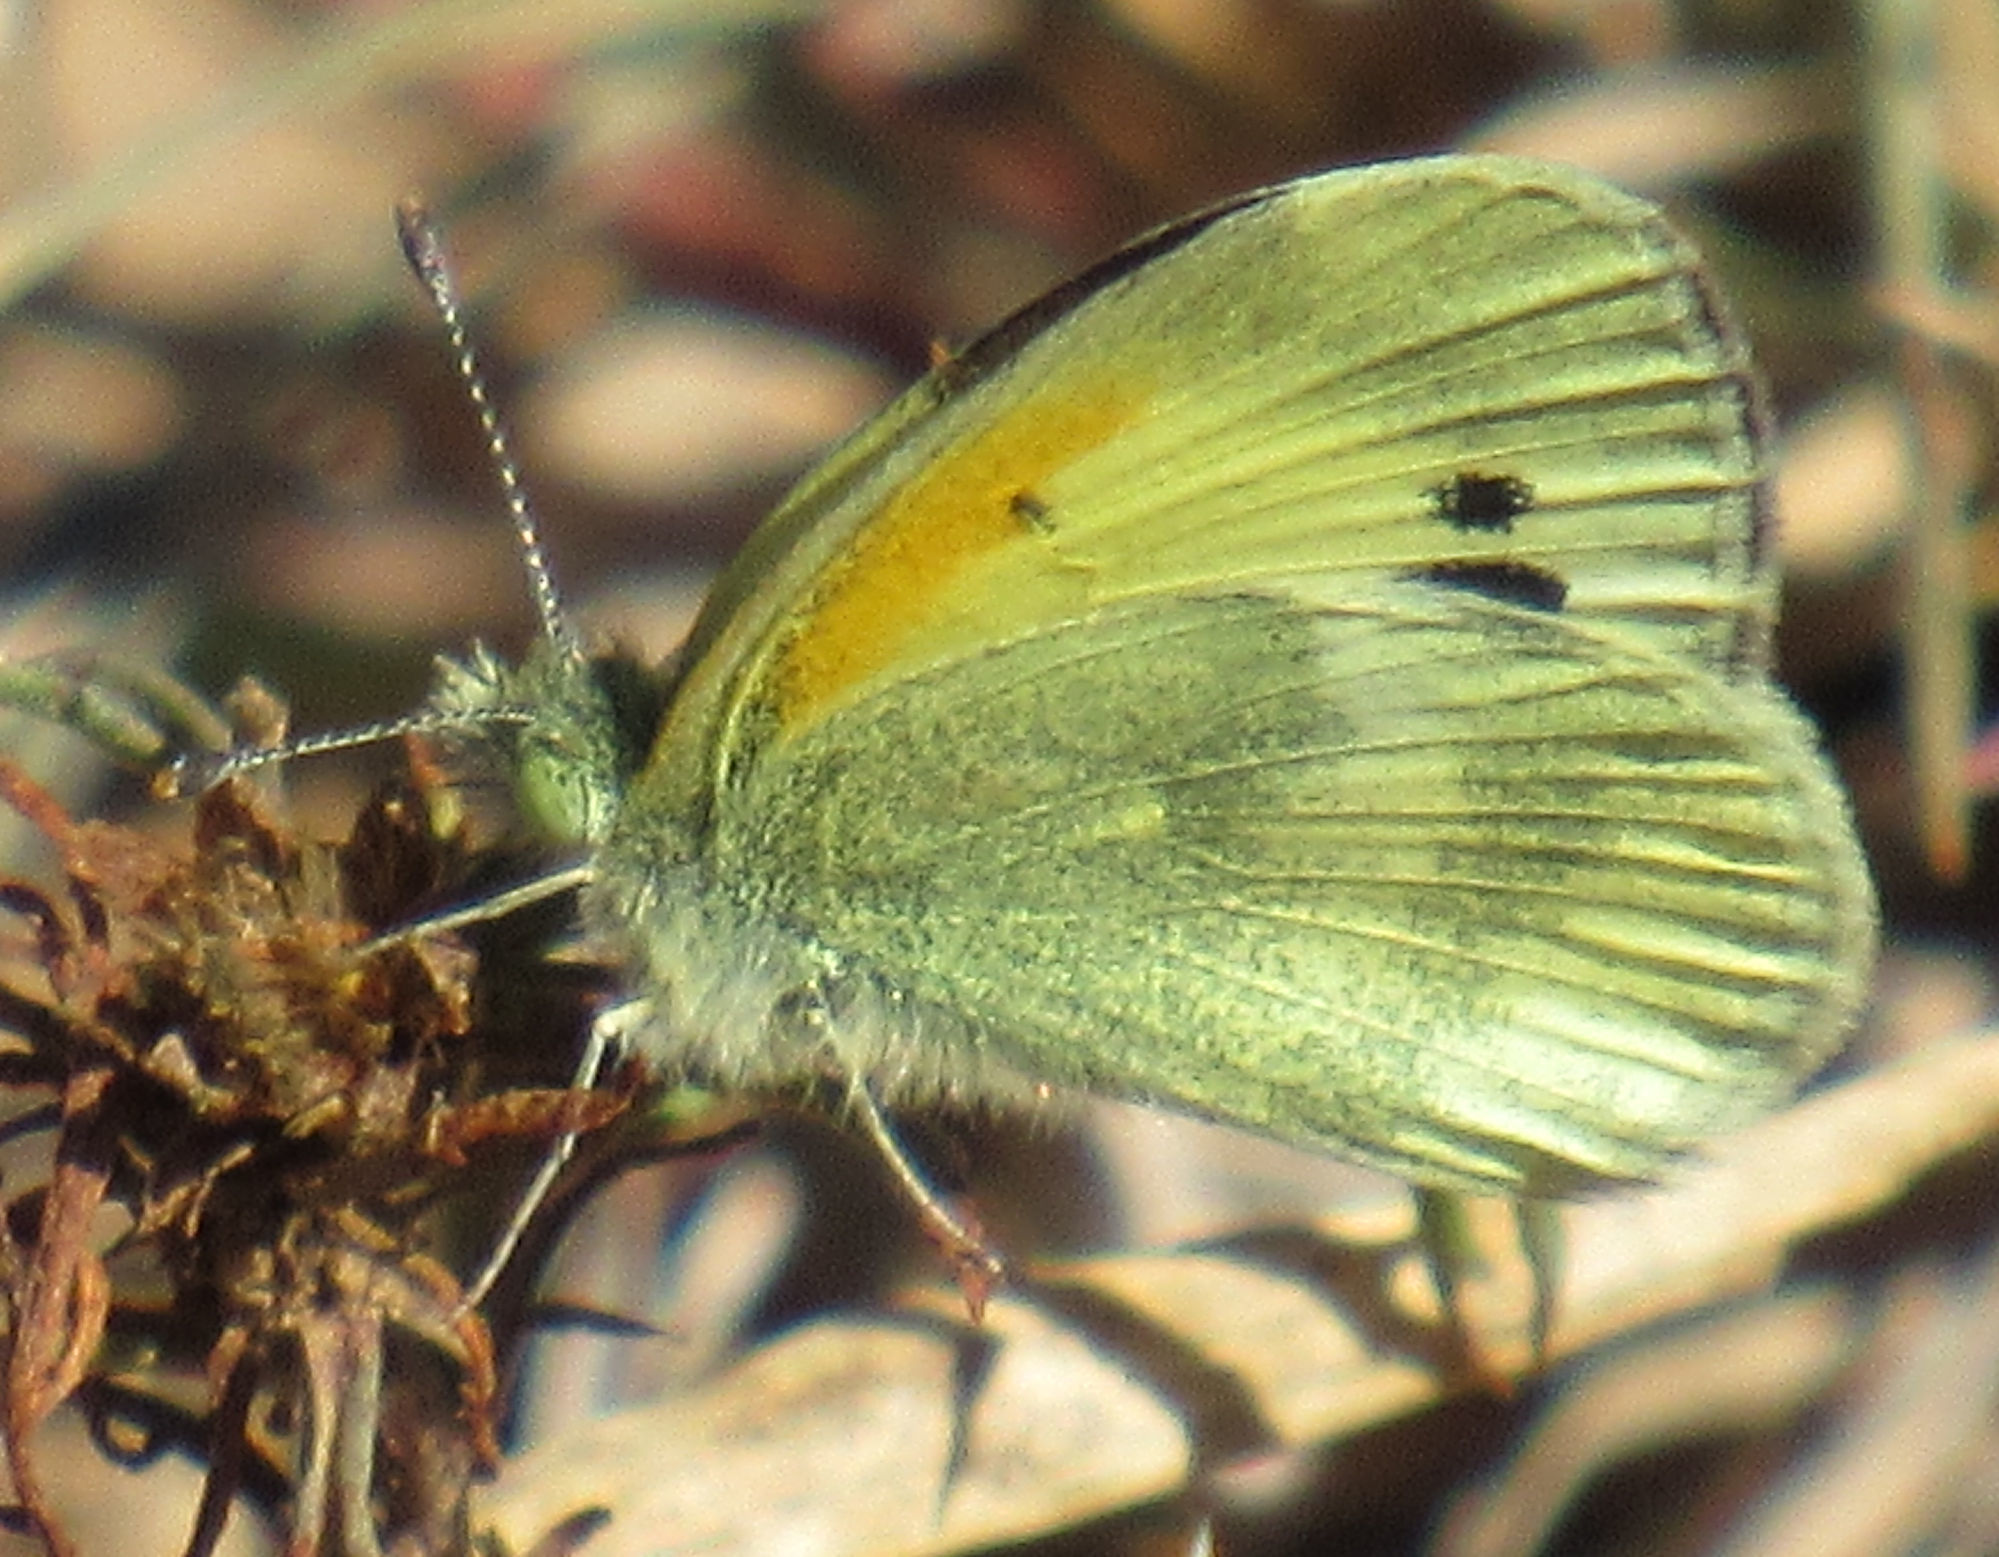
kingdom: Animalia
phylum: Arthropoda
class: Insecta
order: Lepidoptera
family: Pieridae
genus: Nathalis
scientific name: Nathalis iole
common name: Dainty sulphur
